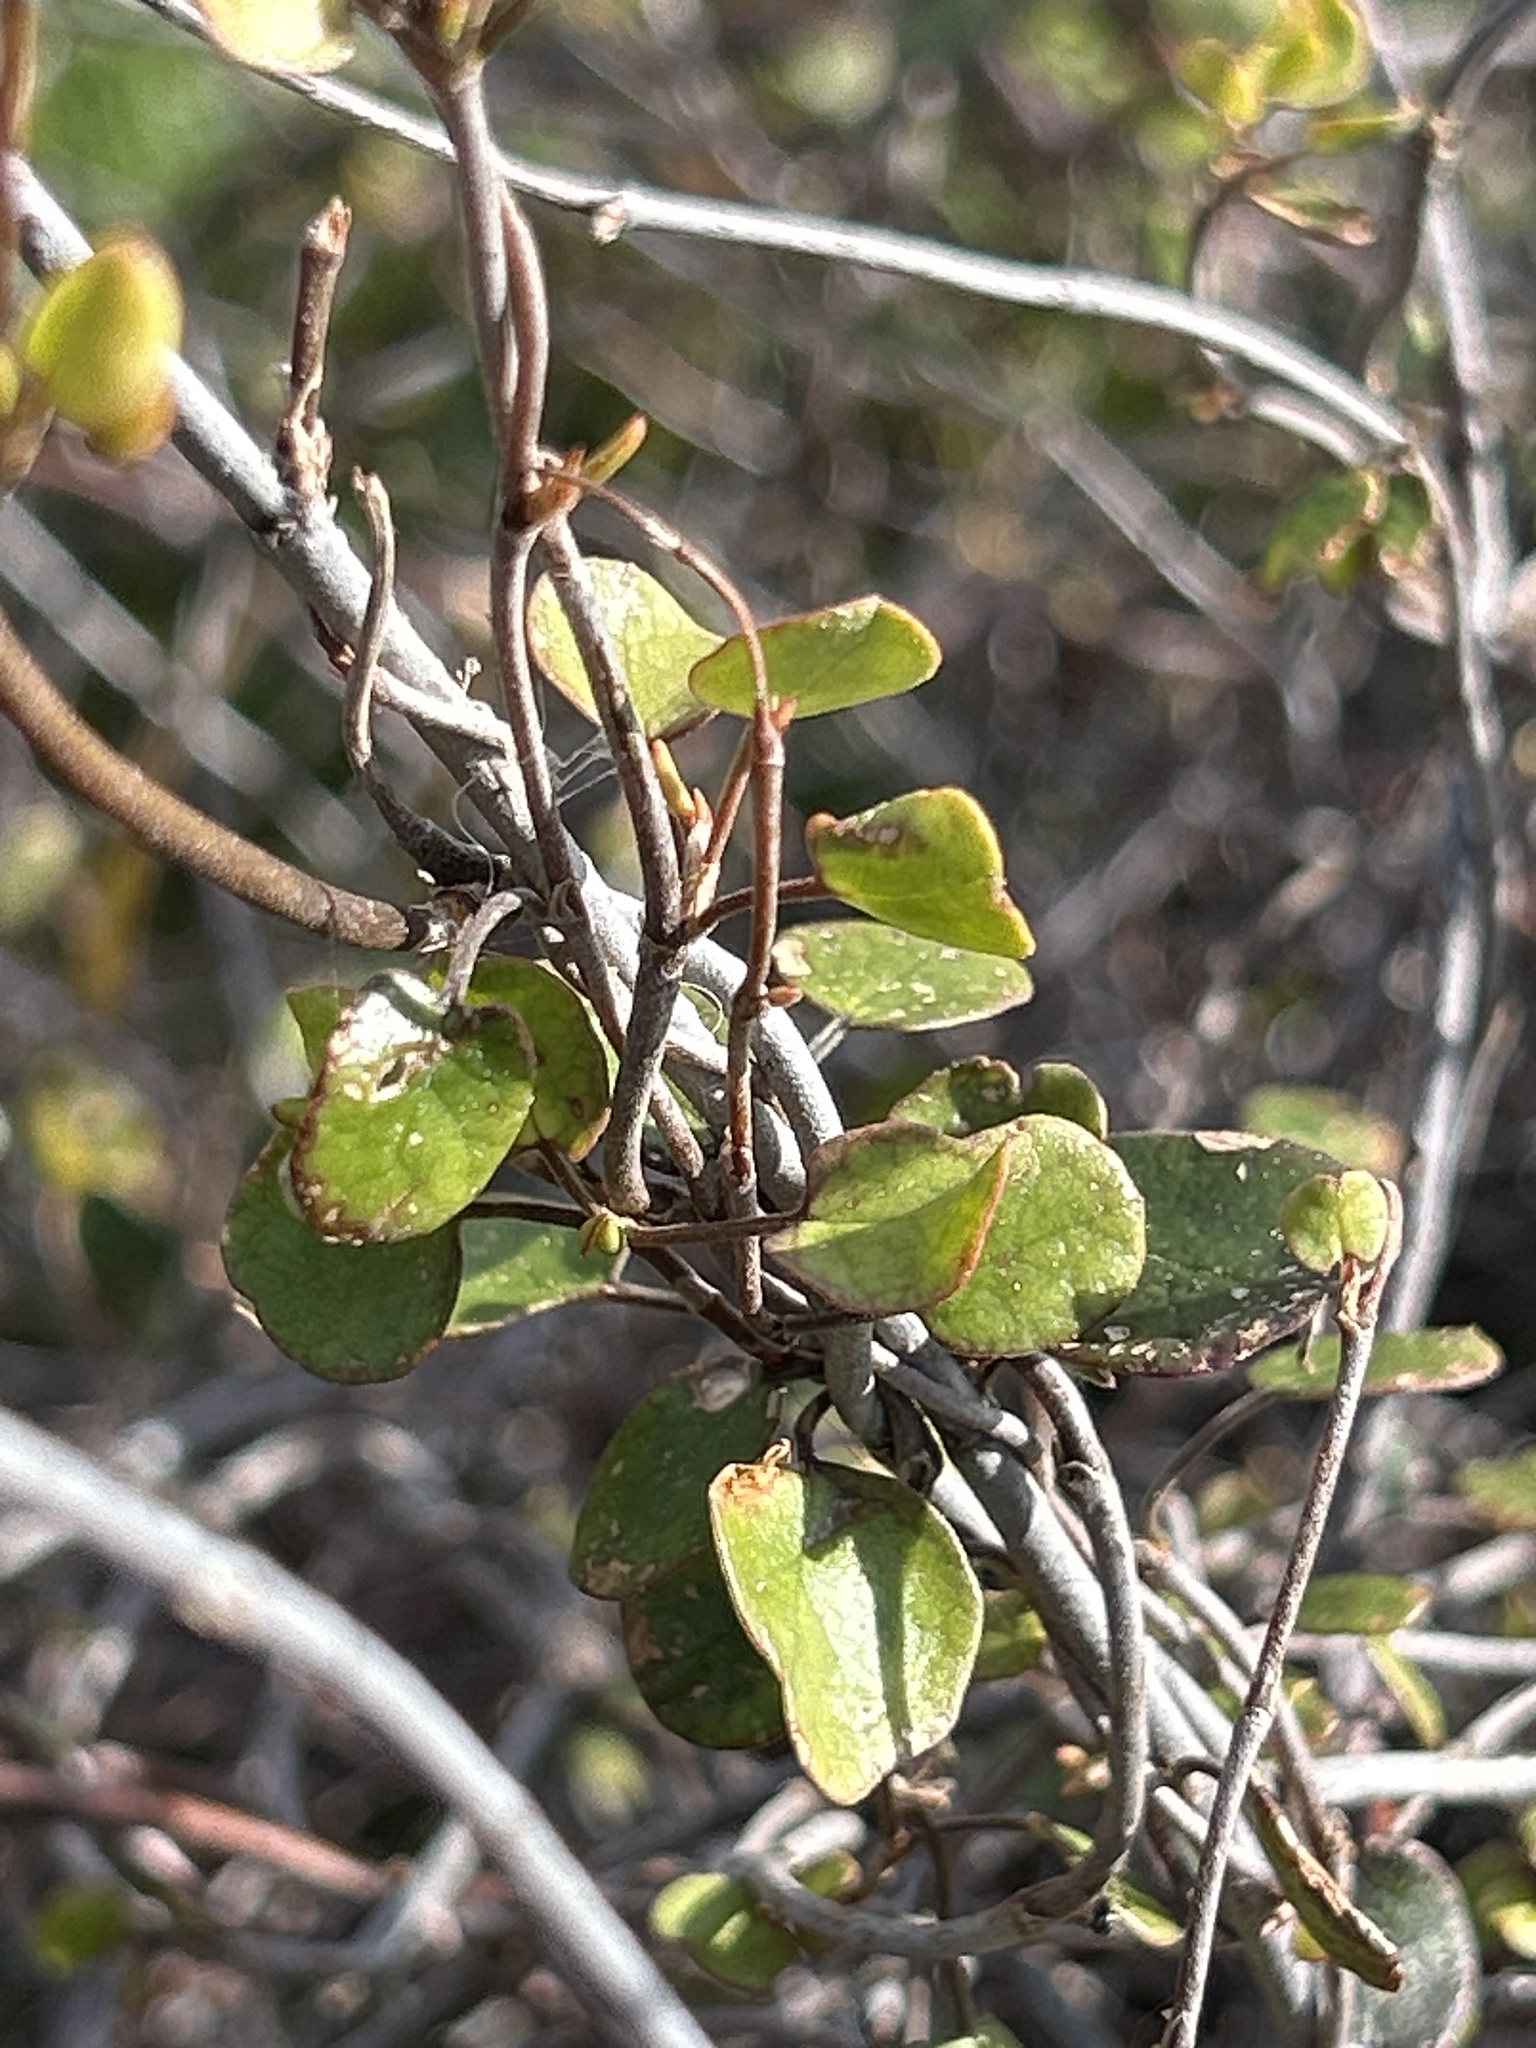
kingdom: Plantae
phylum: Tracheophyta
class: Magnoliopsida
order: Caryophyllales
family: Polygonaceae
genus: Muehlenbeckia
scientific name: Muehlenbeckia complexa
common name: Wireplant
